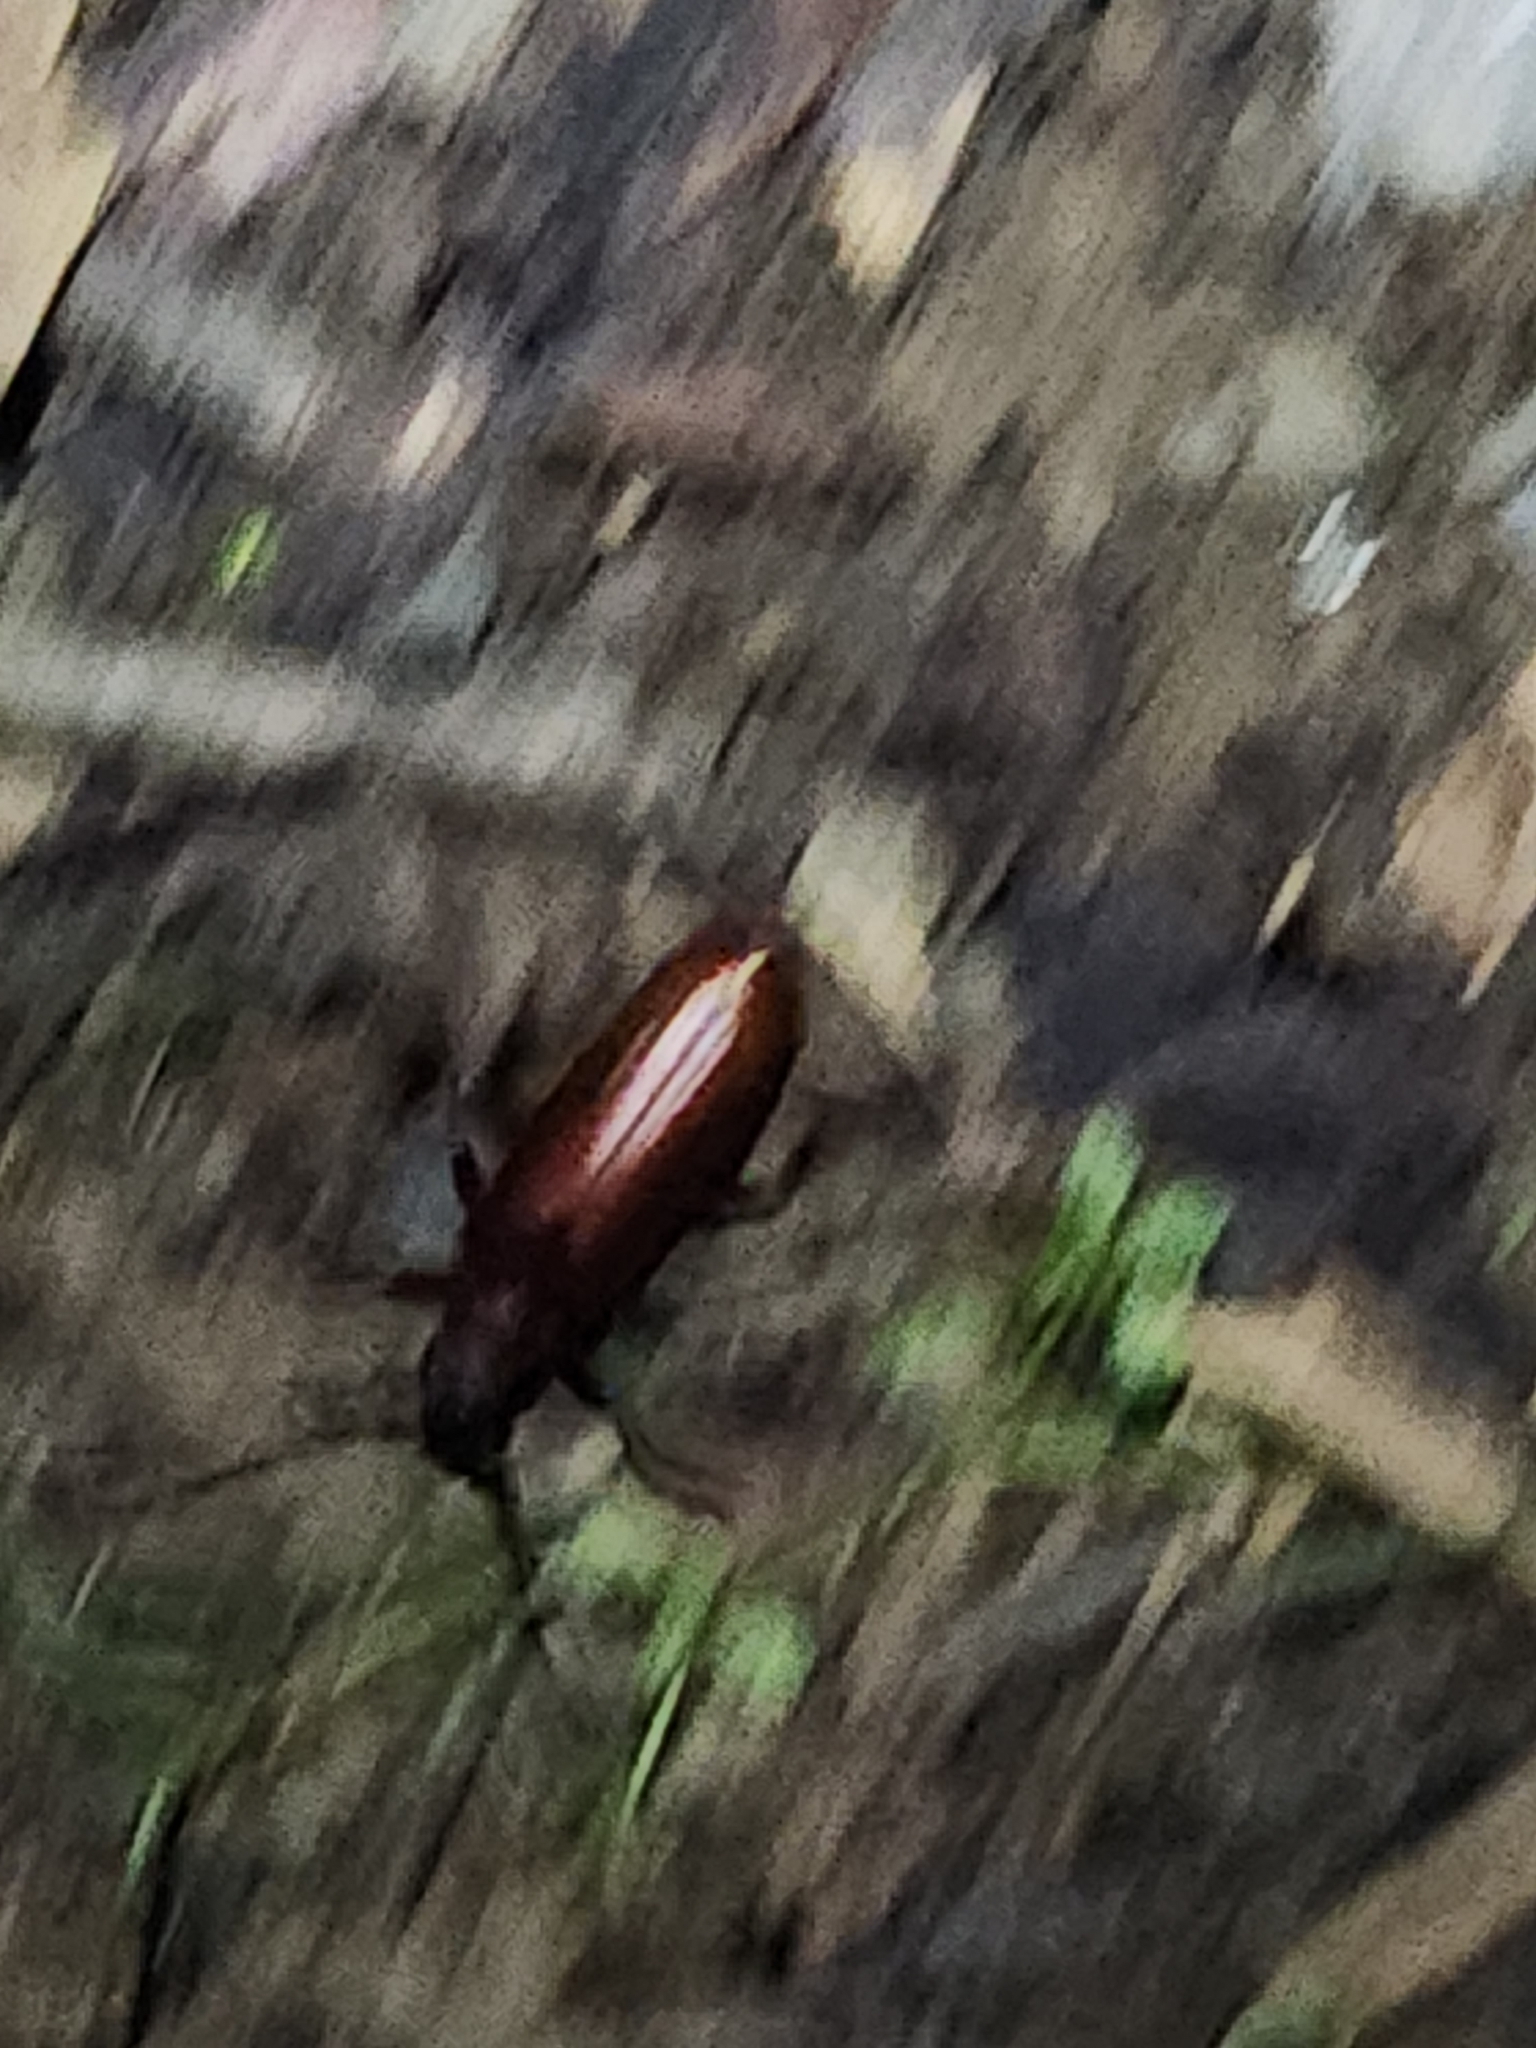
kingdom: Animalia
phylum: Arthropoda
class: Insecta
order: Coleoptera
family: Cerambycidae
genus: Orthosoma
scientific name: Orthosoma brunneum
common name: Brown prionid beetle
